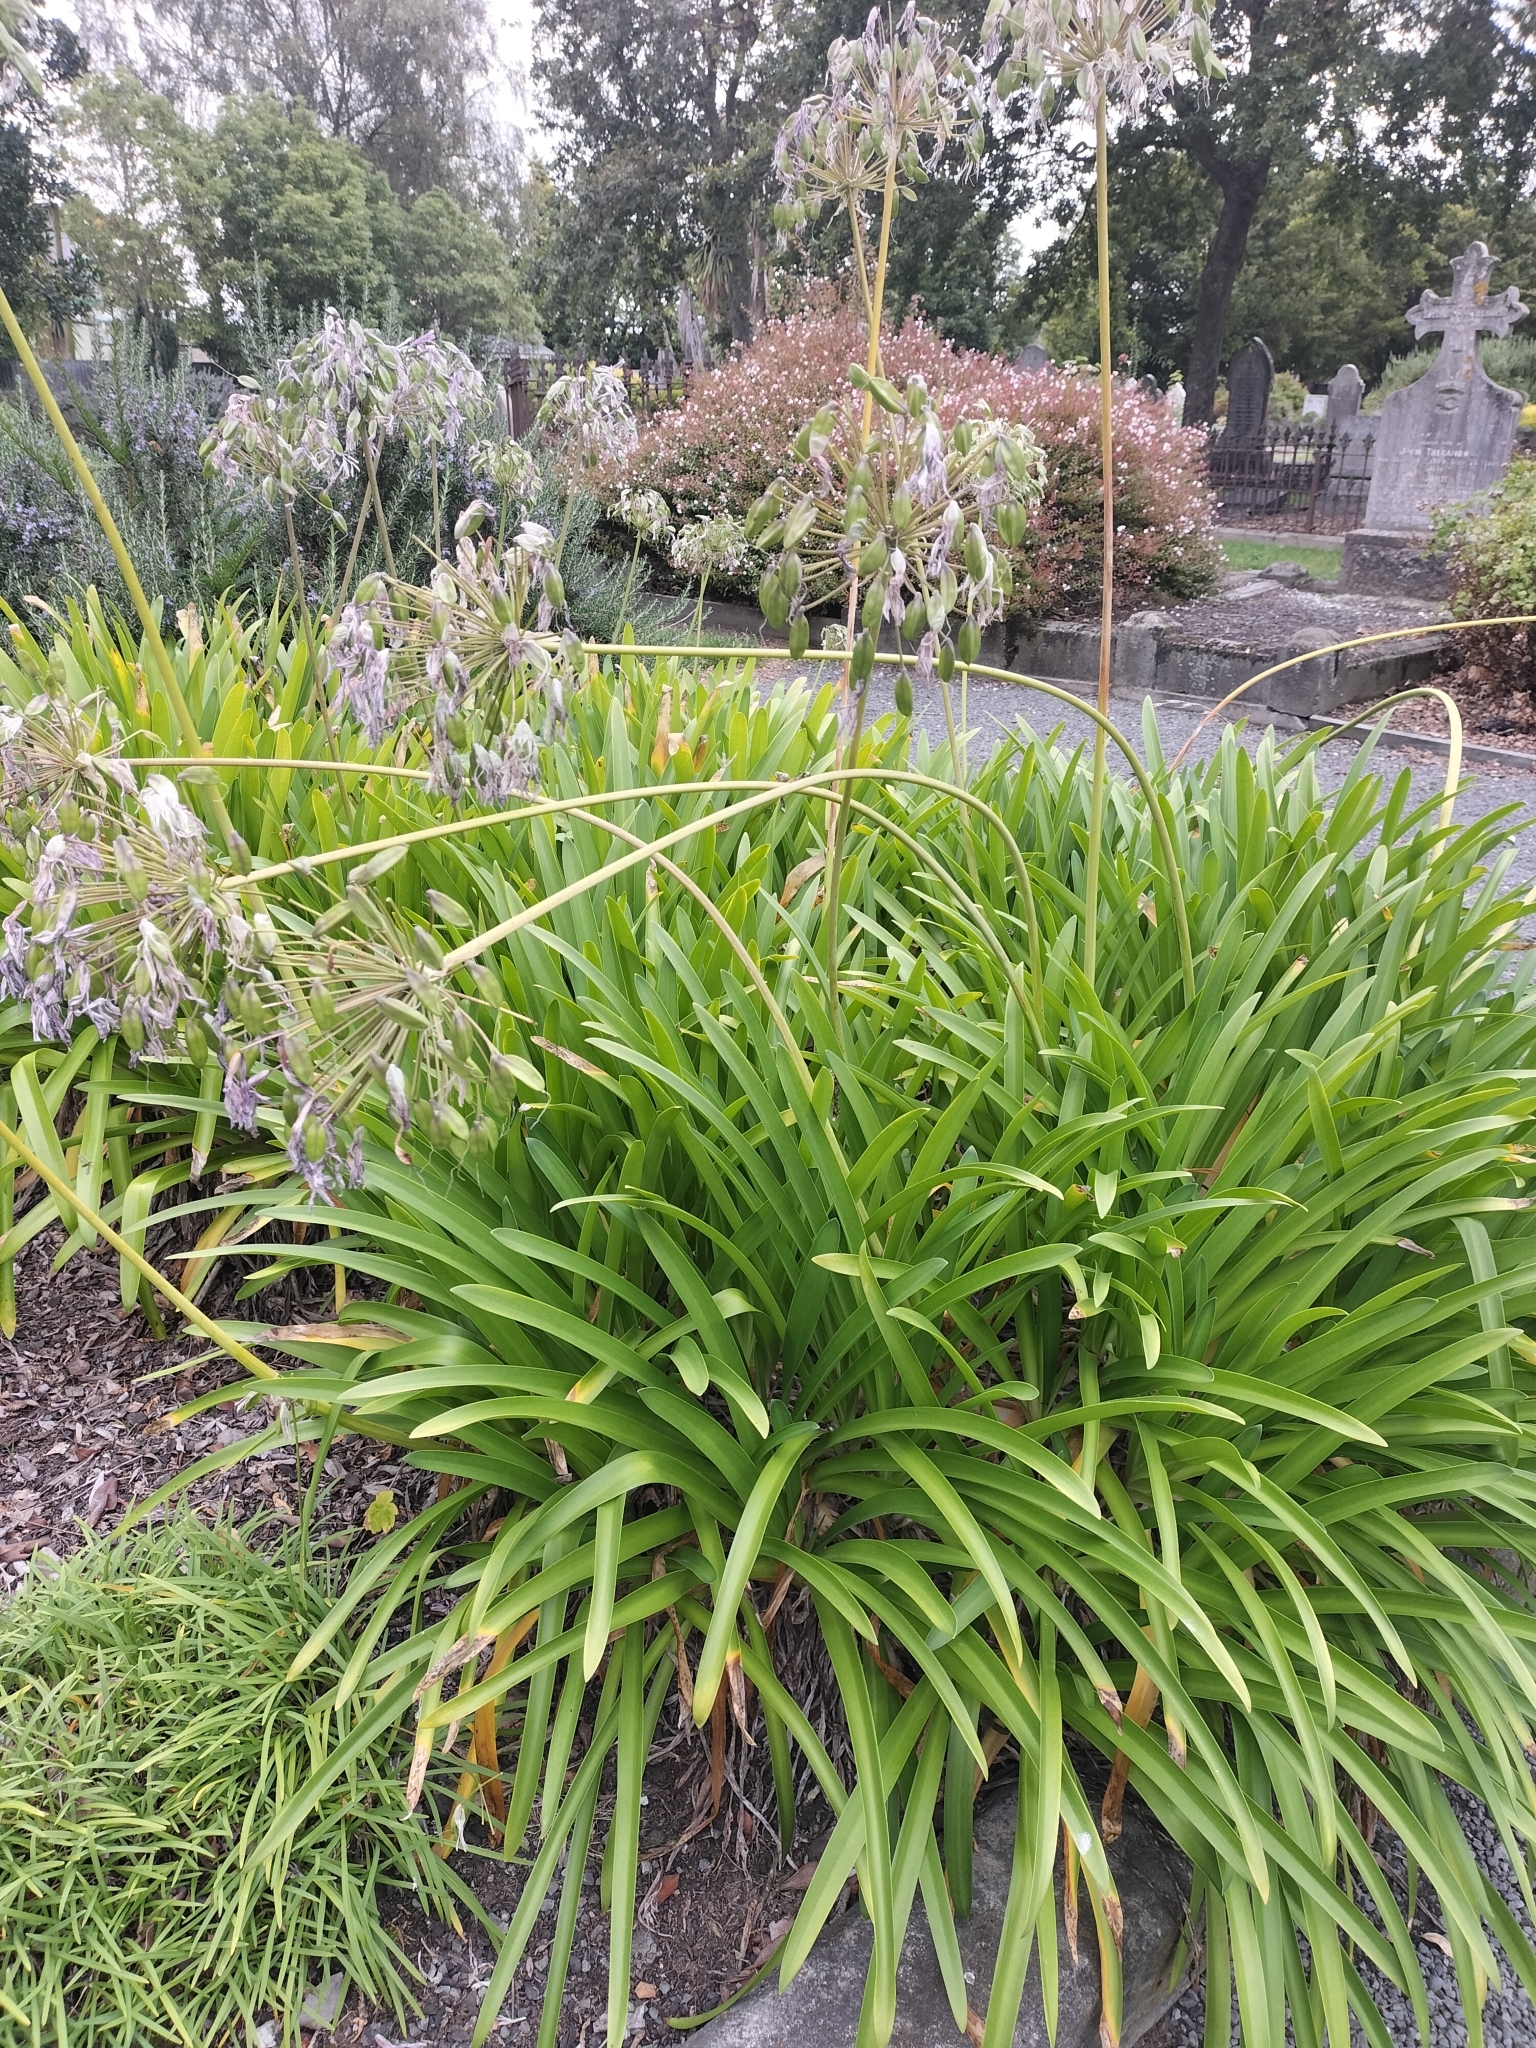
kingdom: Plantae
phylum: Tracheophyta
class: Liliopsida
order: Asparagales
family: Amaryllidaceae
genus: Agapanthus
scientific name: Agapanthus praecox
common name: African-lily
